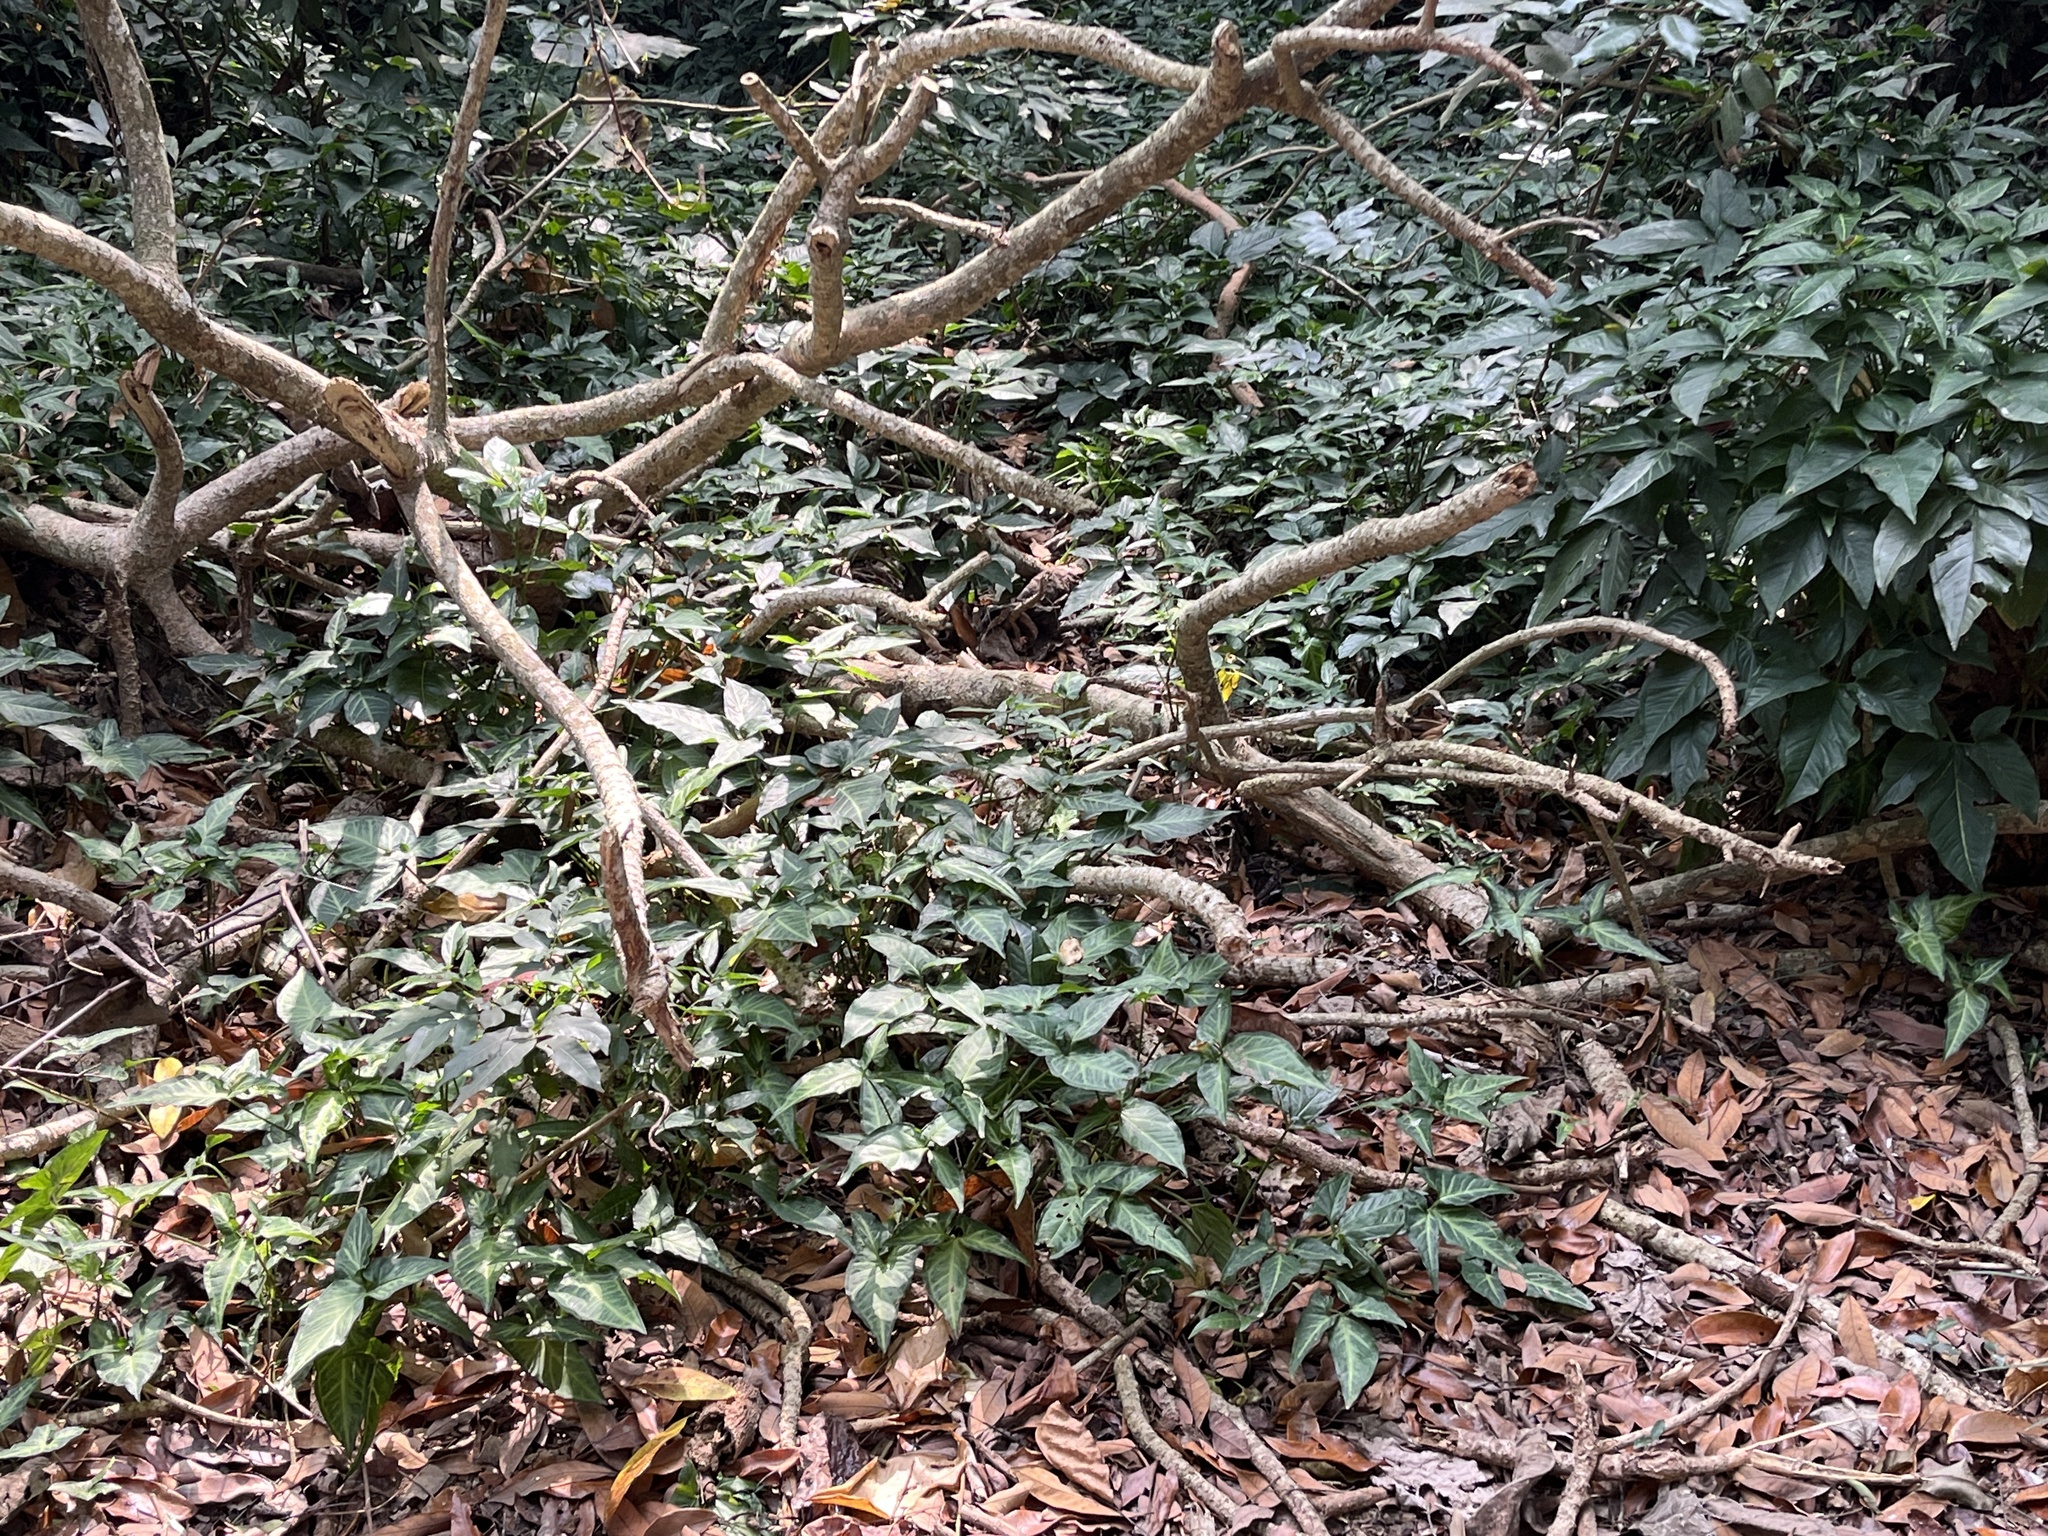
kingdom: Plantae
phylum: Tracheophyta
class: Liliopsida
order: Alismatales
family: Araceae
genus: Syngonium
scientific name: Syngonium angustatum
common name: Fivefingers
